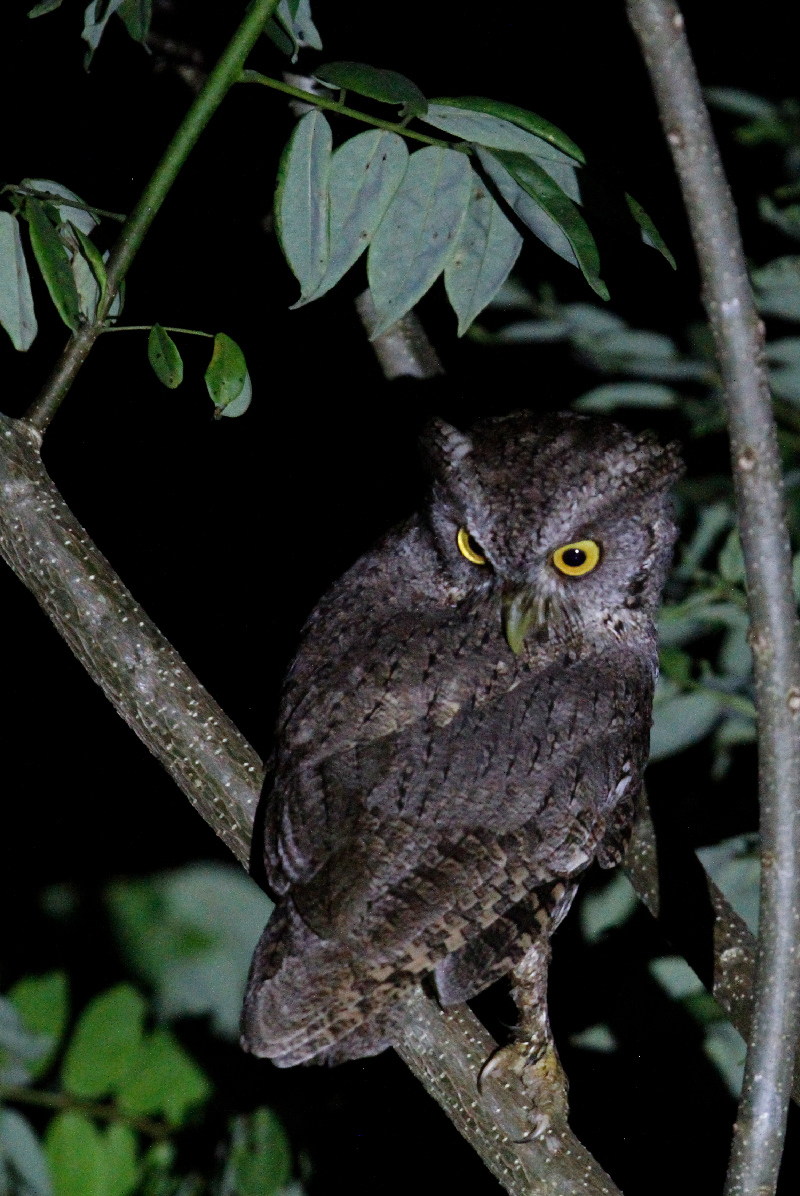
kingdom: Animalia
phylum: Chordata
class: Aves
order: Strigiformes
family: Strigidae
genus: Megascops
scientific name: Megascops cooperi
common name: Pacific screech-owl
